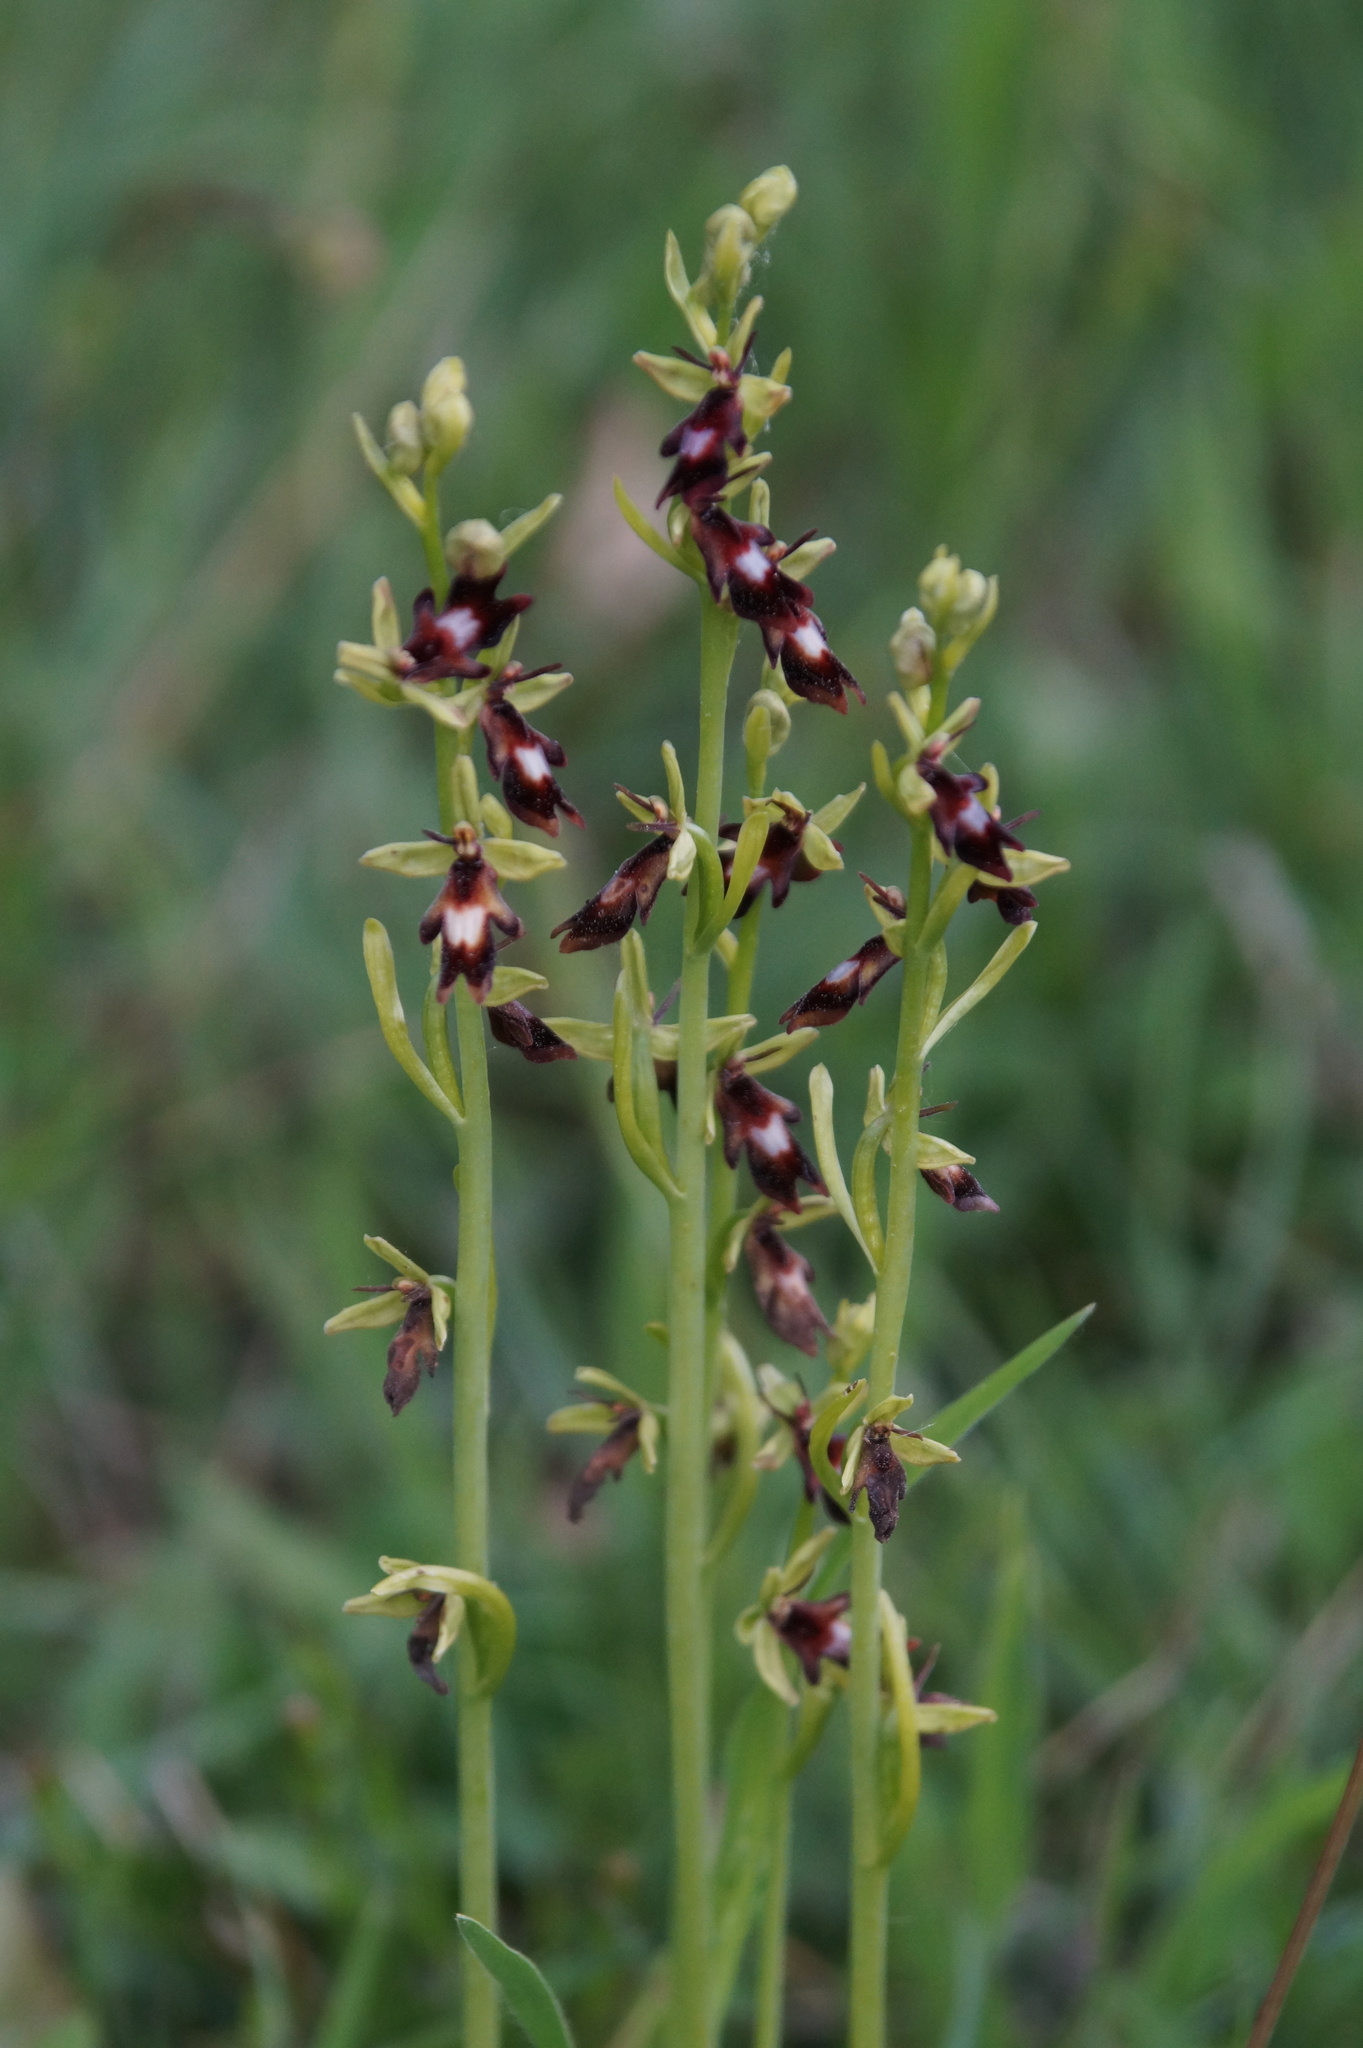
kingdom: Plantae
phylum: Tracheophyta
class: Liliopsida
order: Asparagales
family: Orchidaceae
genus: Ophrys
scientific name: Ophrys insectifera
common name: Fly orchid
